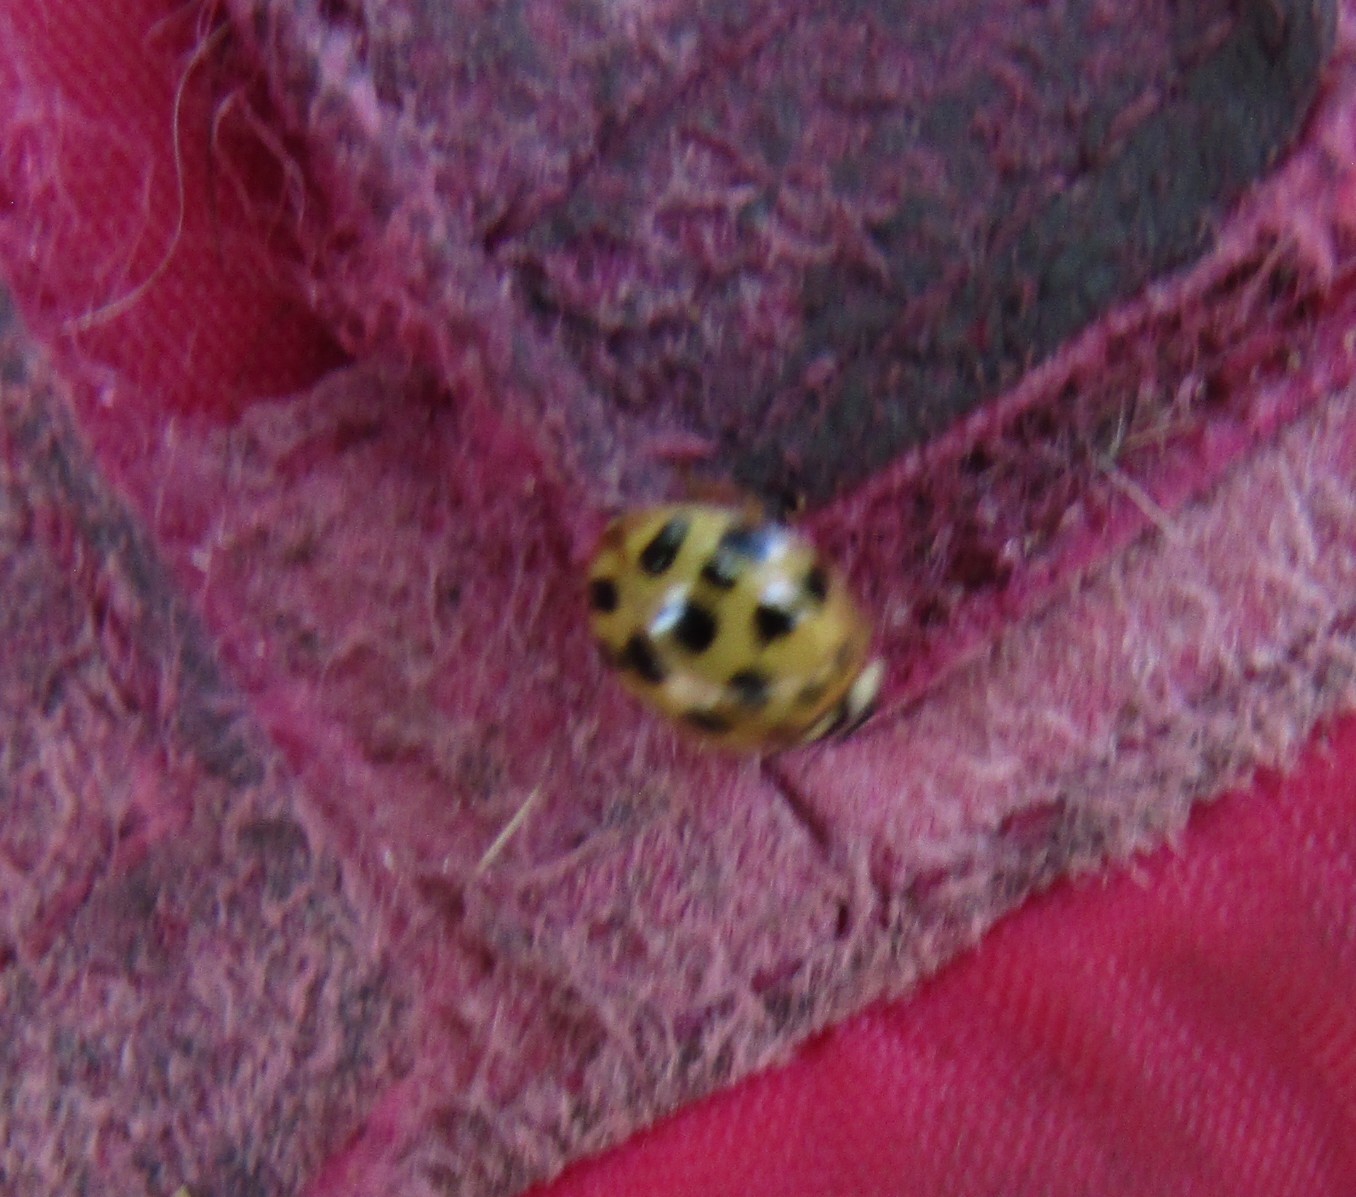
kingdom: Animalia
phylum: Arthropoda
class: Insecta
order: Coleoptera
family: Coccinellidae
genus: Harmonia
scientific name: Harmonia axyridis
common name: Harlequin ladybird
